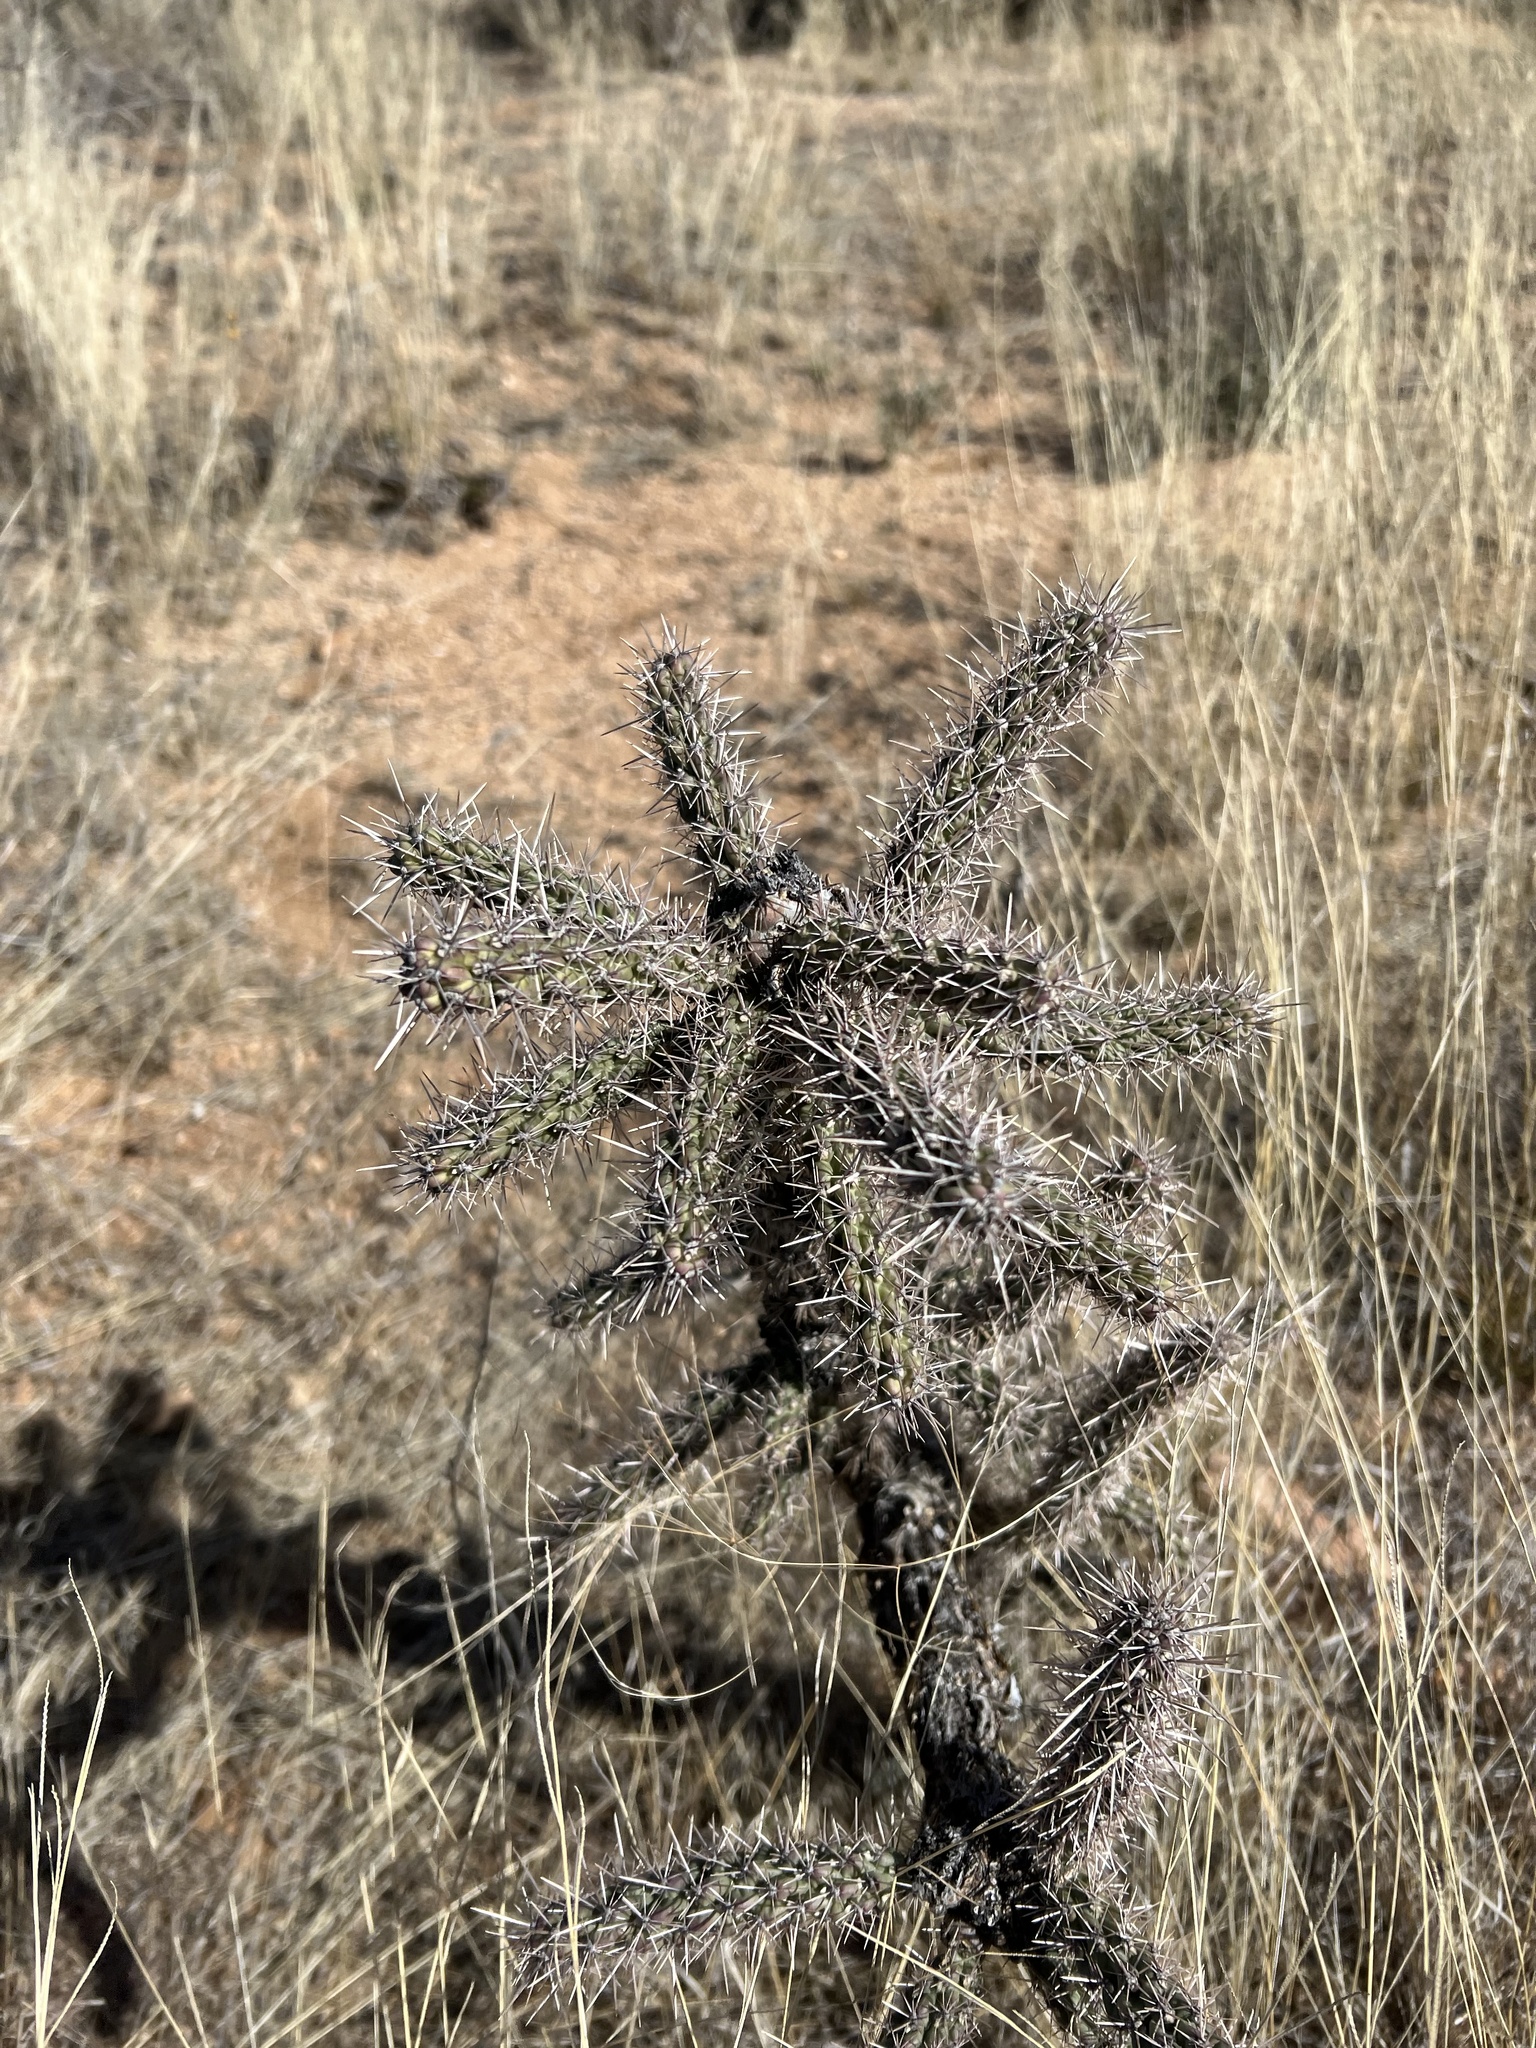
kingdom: Plantae
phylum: Tracheophyta
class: Magnoliopsida
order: Caryophyllales
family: Cactaceae
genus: Cylindropuntia
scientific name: Cylindropuntia imbricata
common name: Candelabrum cactus
